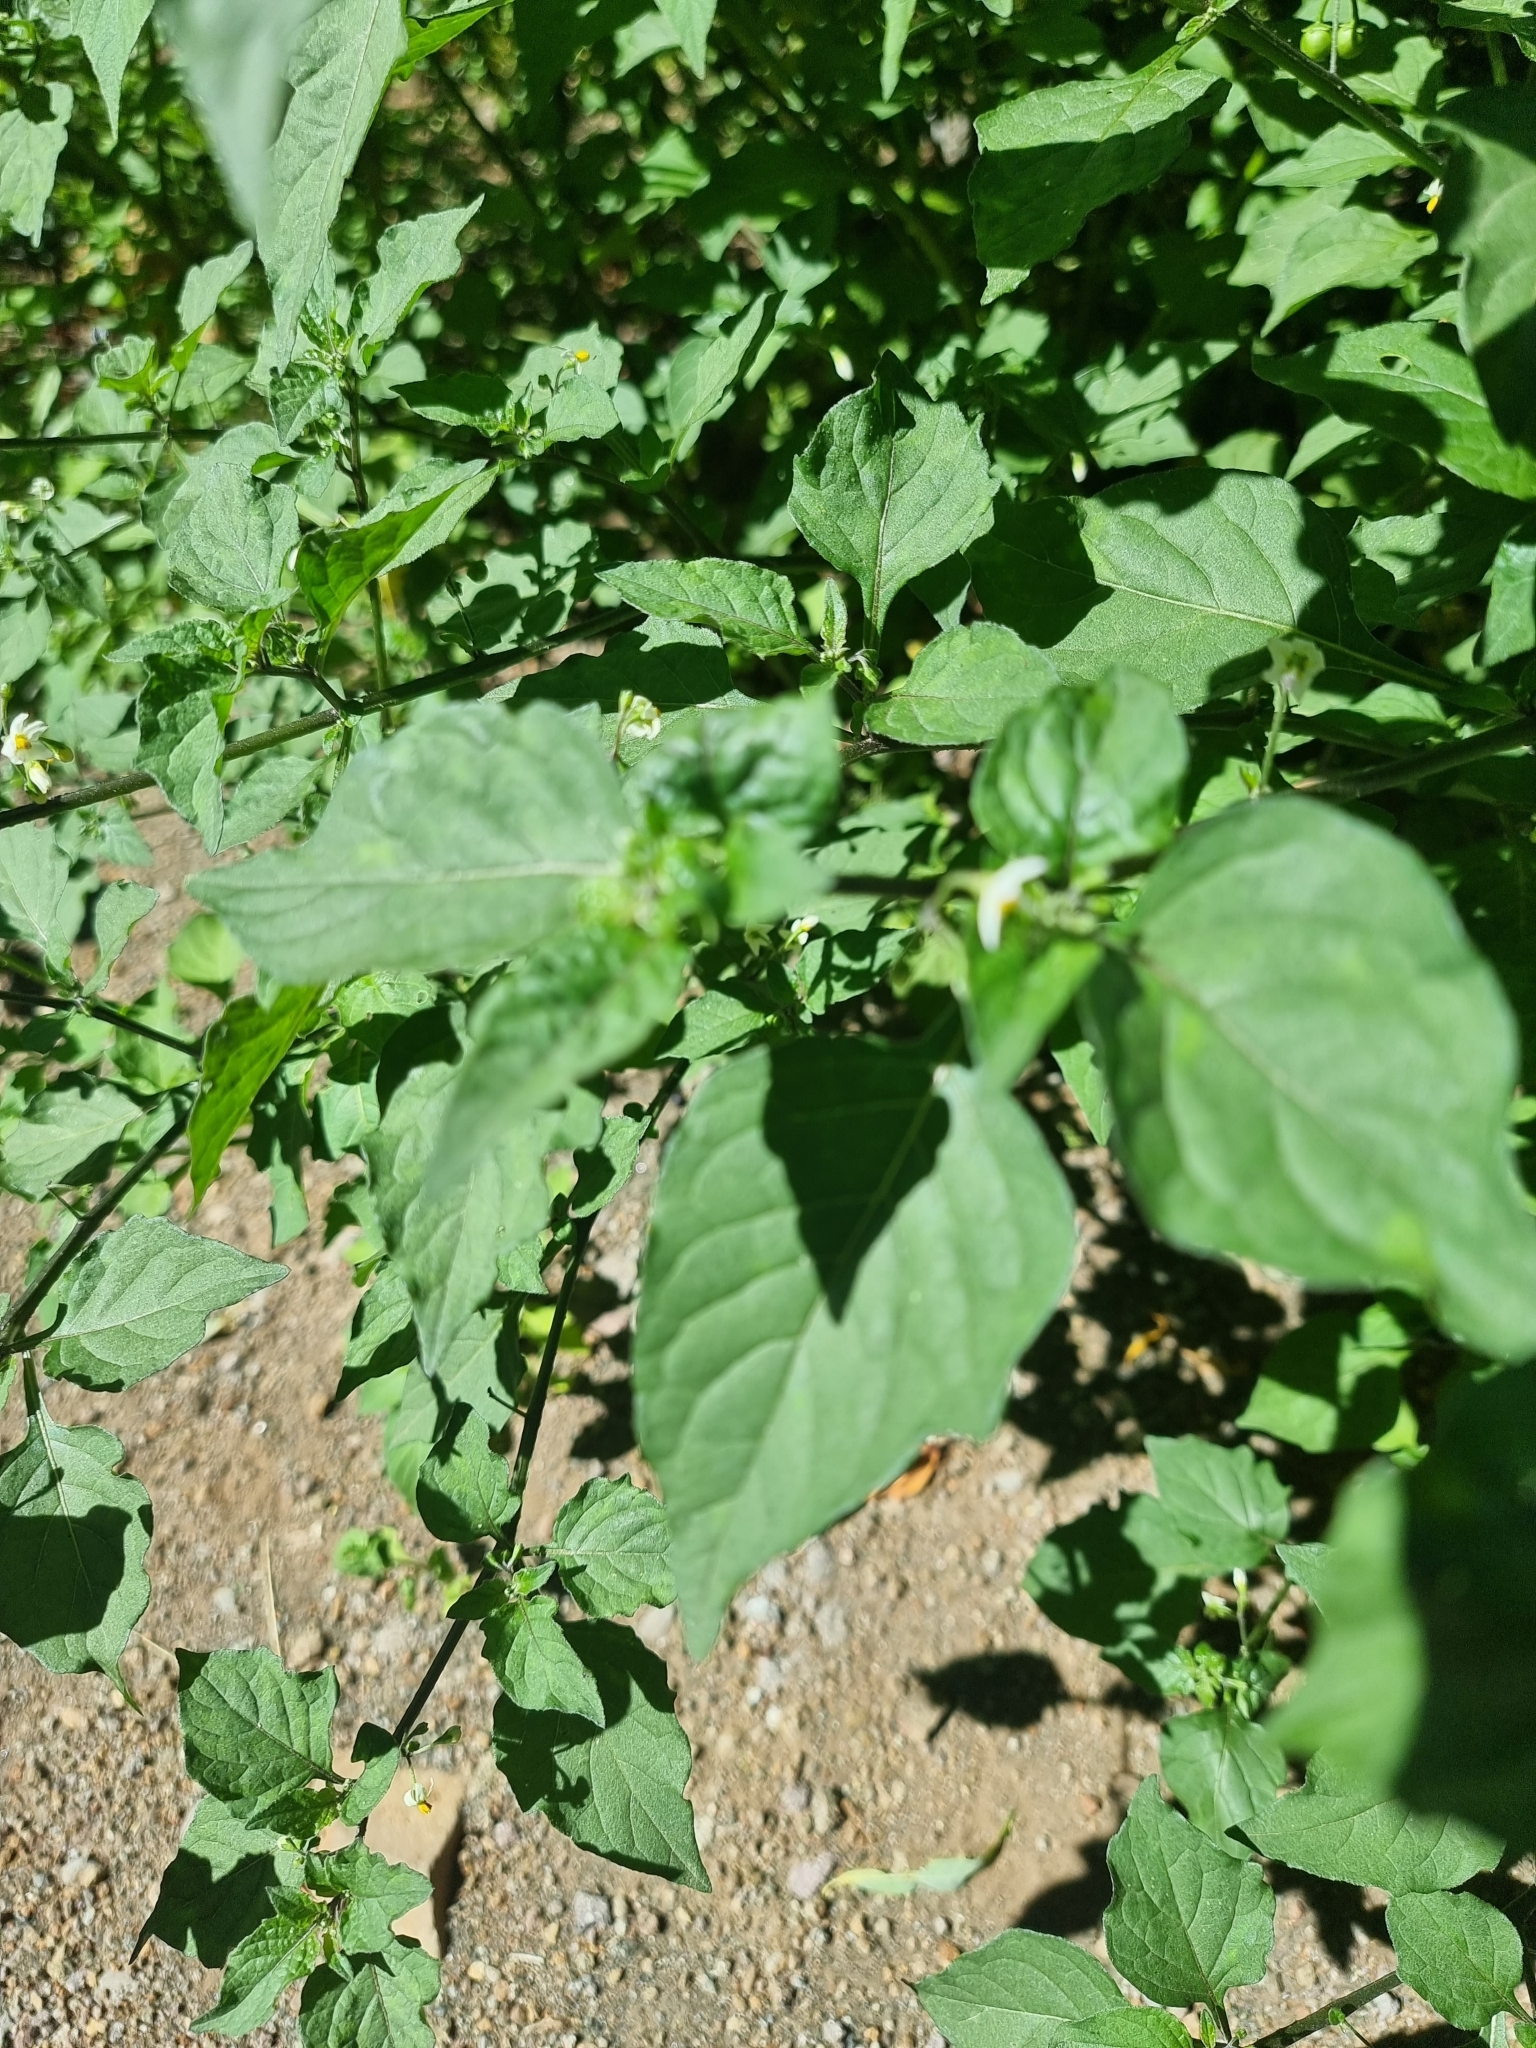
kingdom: Plantae
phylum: Tracheophyta
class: Magnoliopsida
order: Solanales
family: Solanaceae
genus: Solanum
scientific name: Solanum nigrum
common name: Black nightshade
